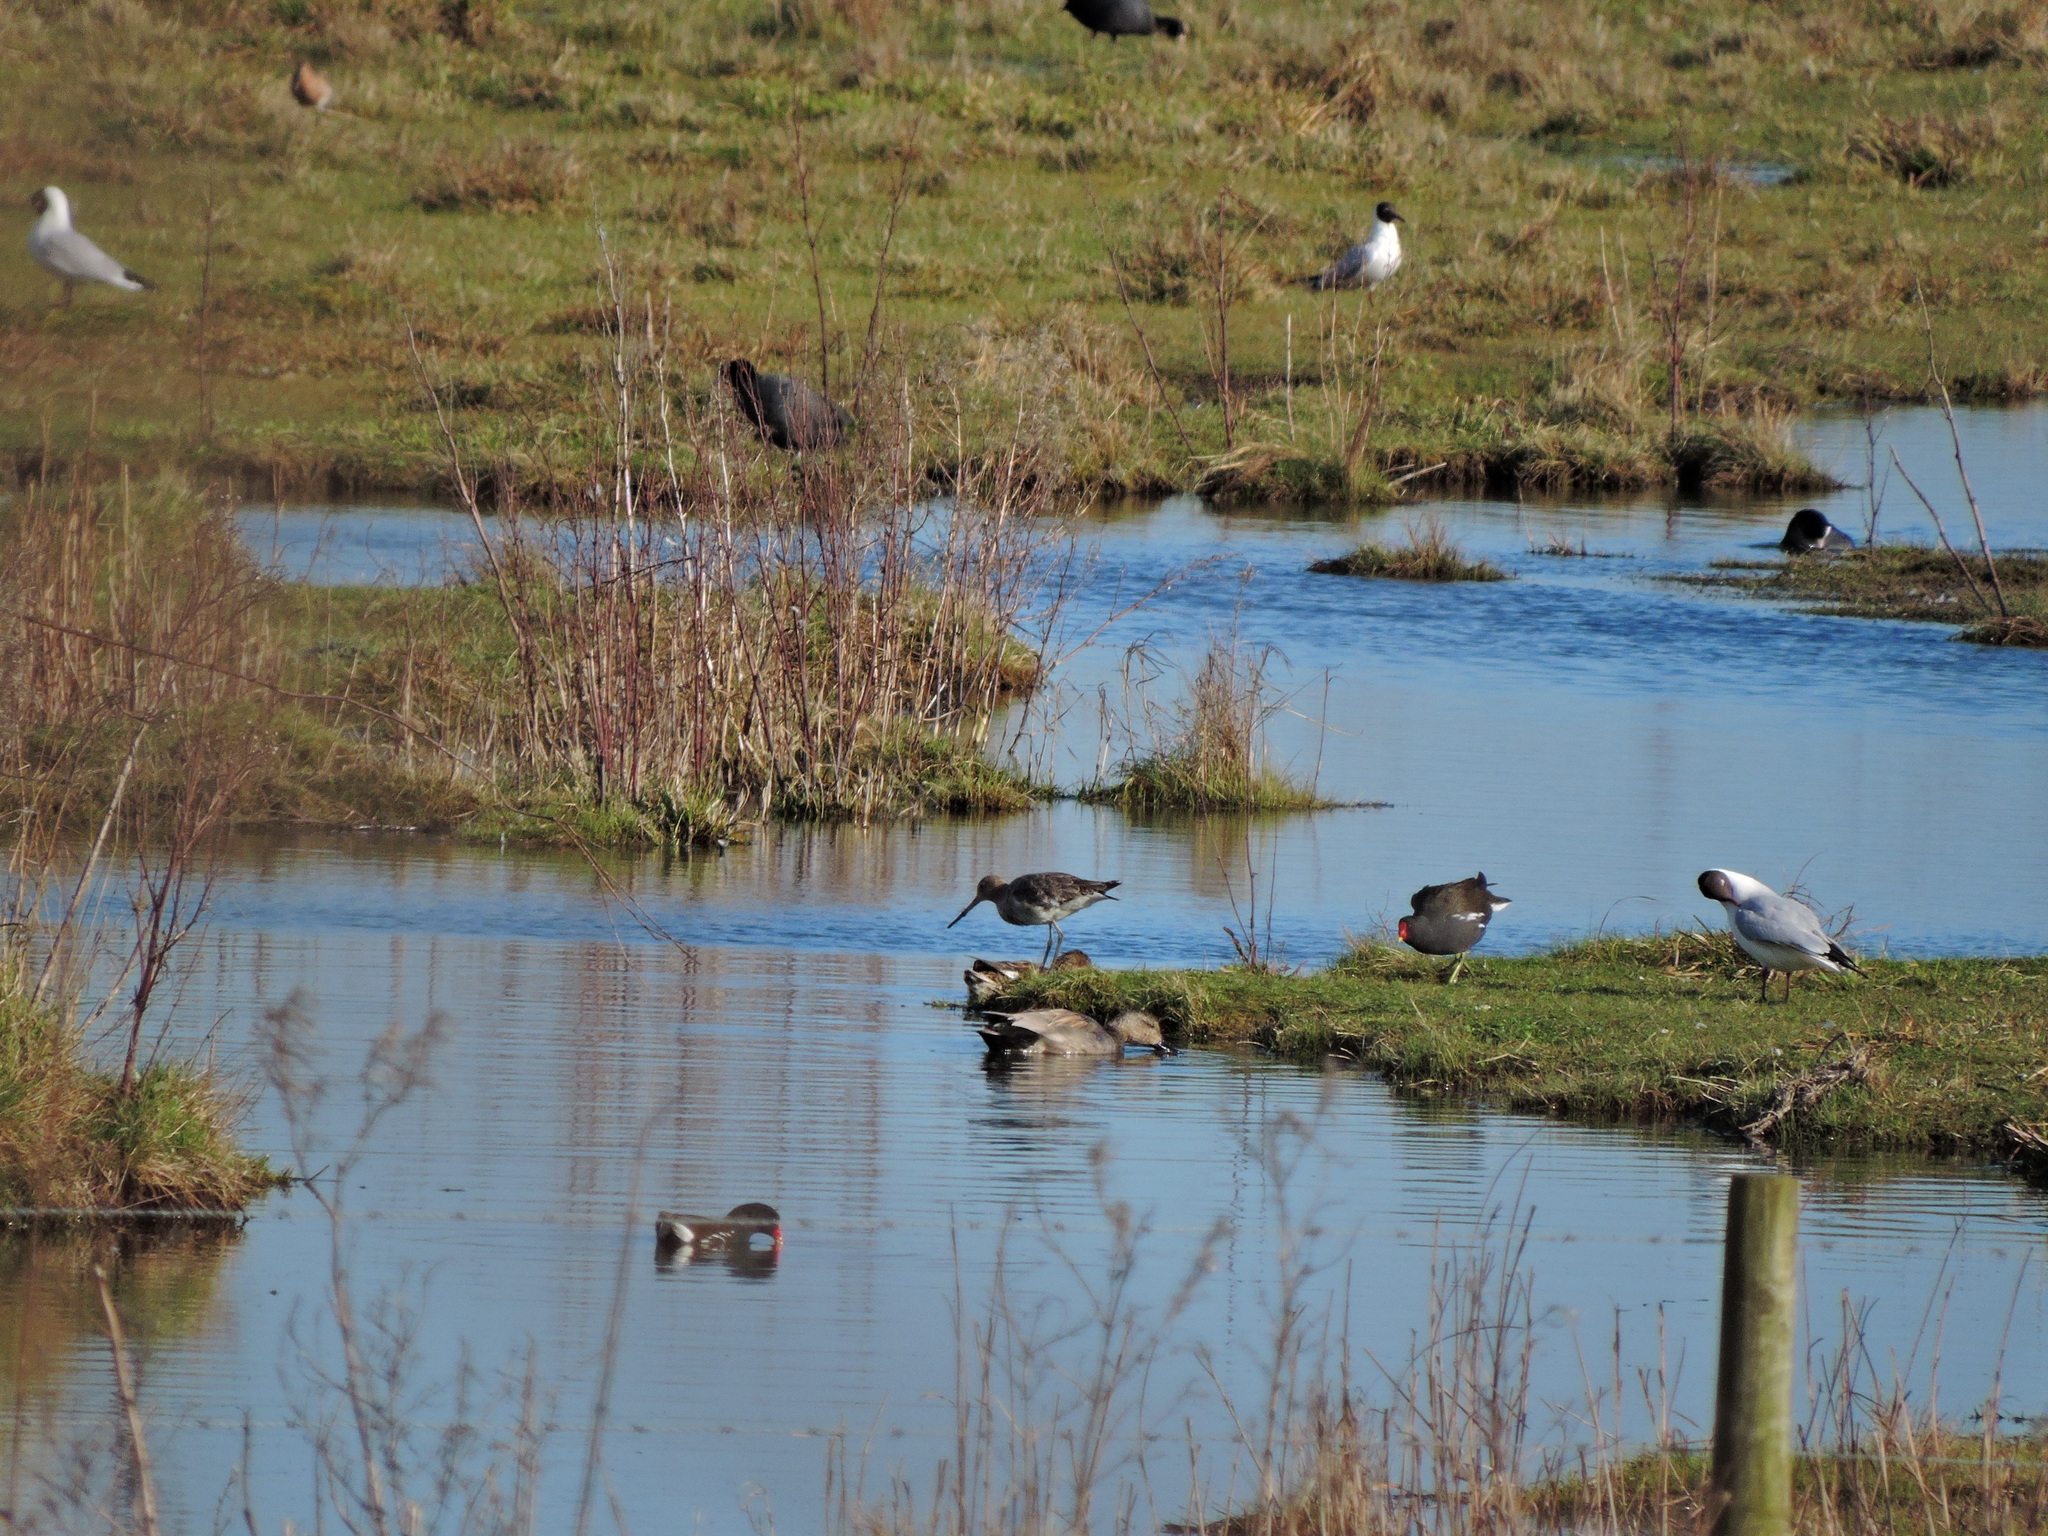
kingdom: Animalia
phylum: Chordata
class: Aves
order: Charadriiformes
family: Scolopacidae
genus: Limosa
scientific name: Limosa limosa
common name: Black-tailed godwit
